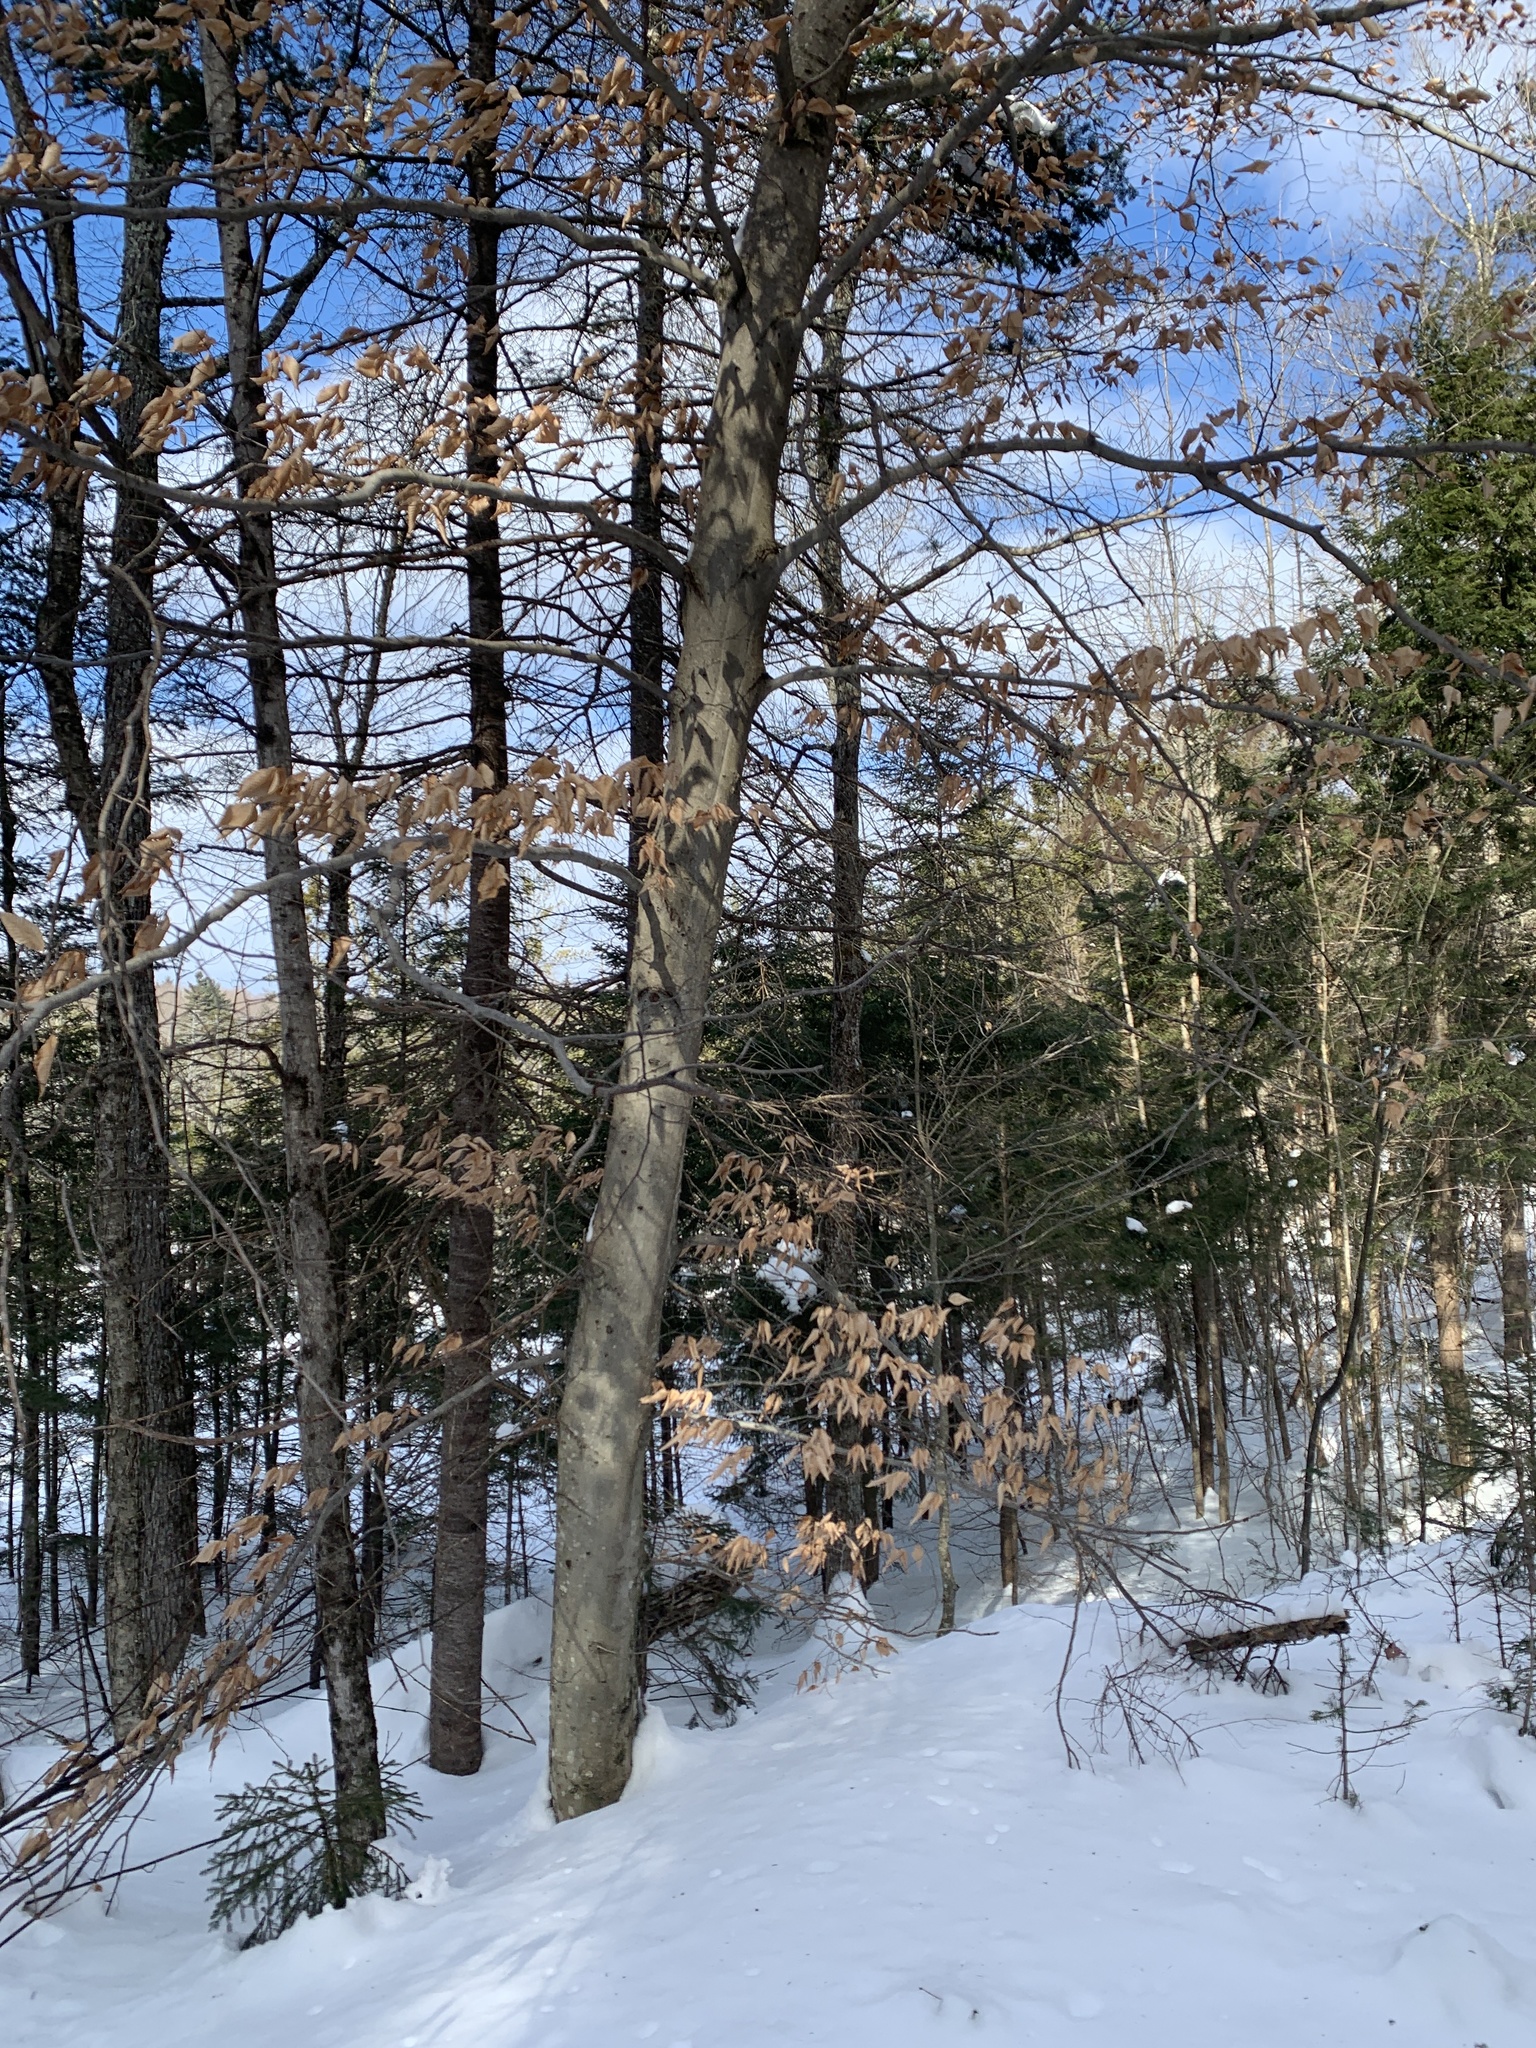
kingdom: Plantae
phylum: Tracheophyta
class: Magnoliopsida
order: Fagales
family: Fagaceae
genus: Fagus
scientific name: Fagus grandifolia
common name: American beech
